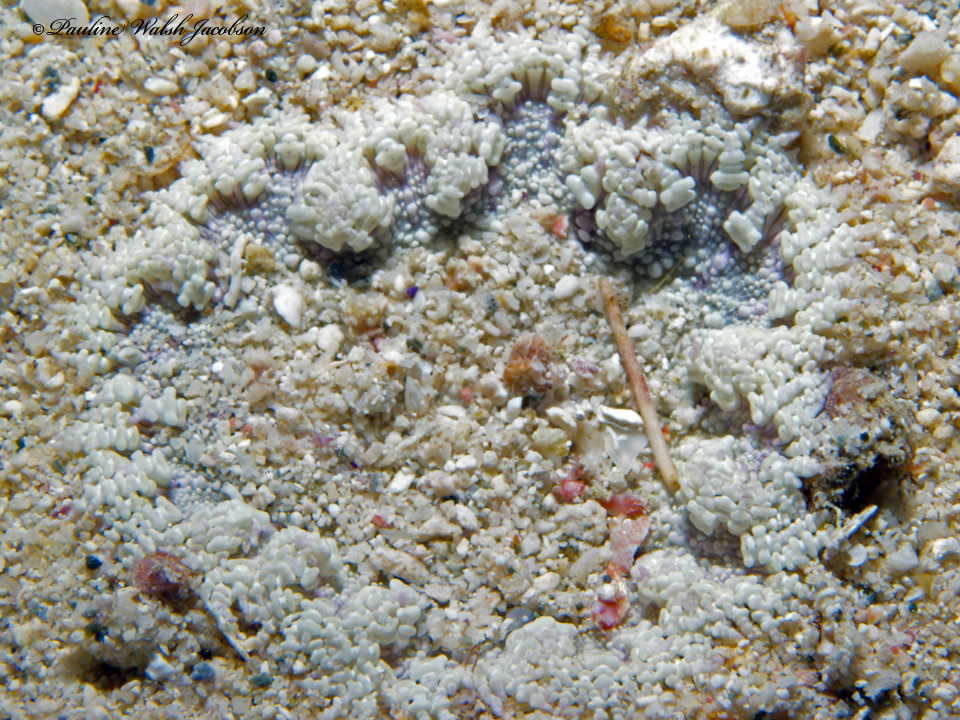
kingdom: Animalia
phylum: Cnidaria
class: Anthozoa
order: Actiniaria
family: Phymanthidae
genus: Phymanthus
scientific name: Phymanthus crucifer
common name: Red beaded anemone
